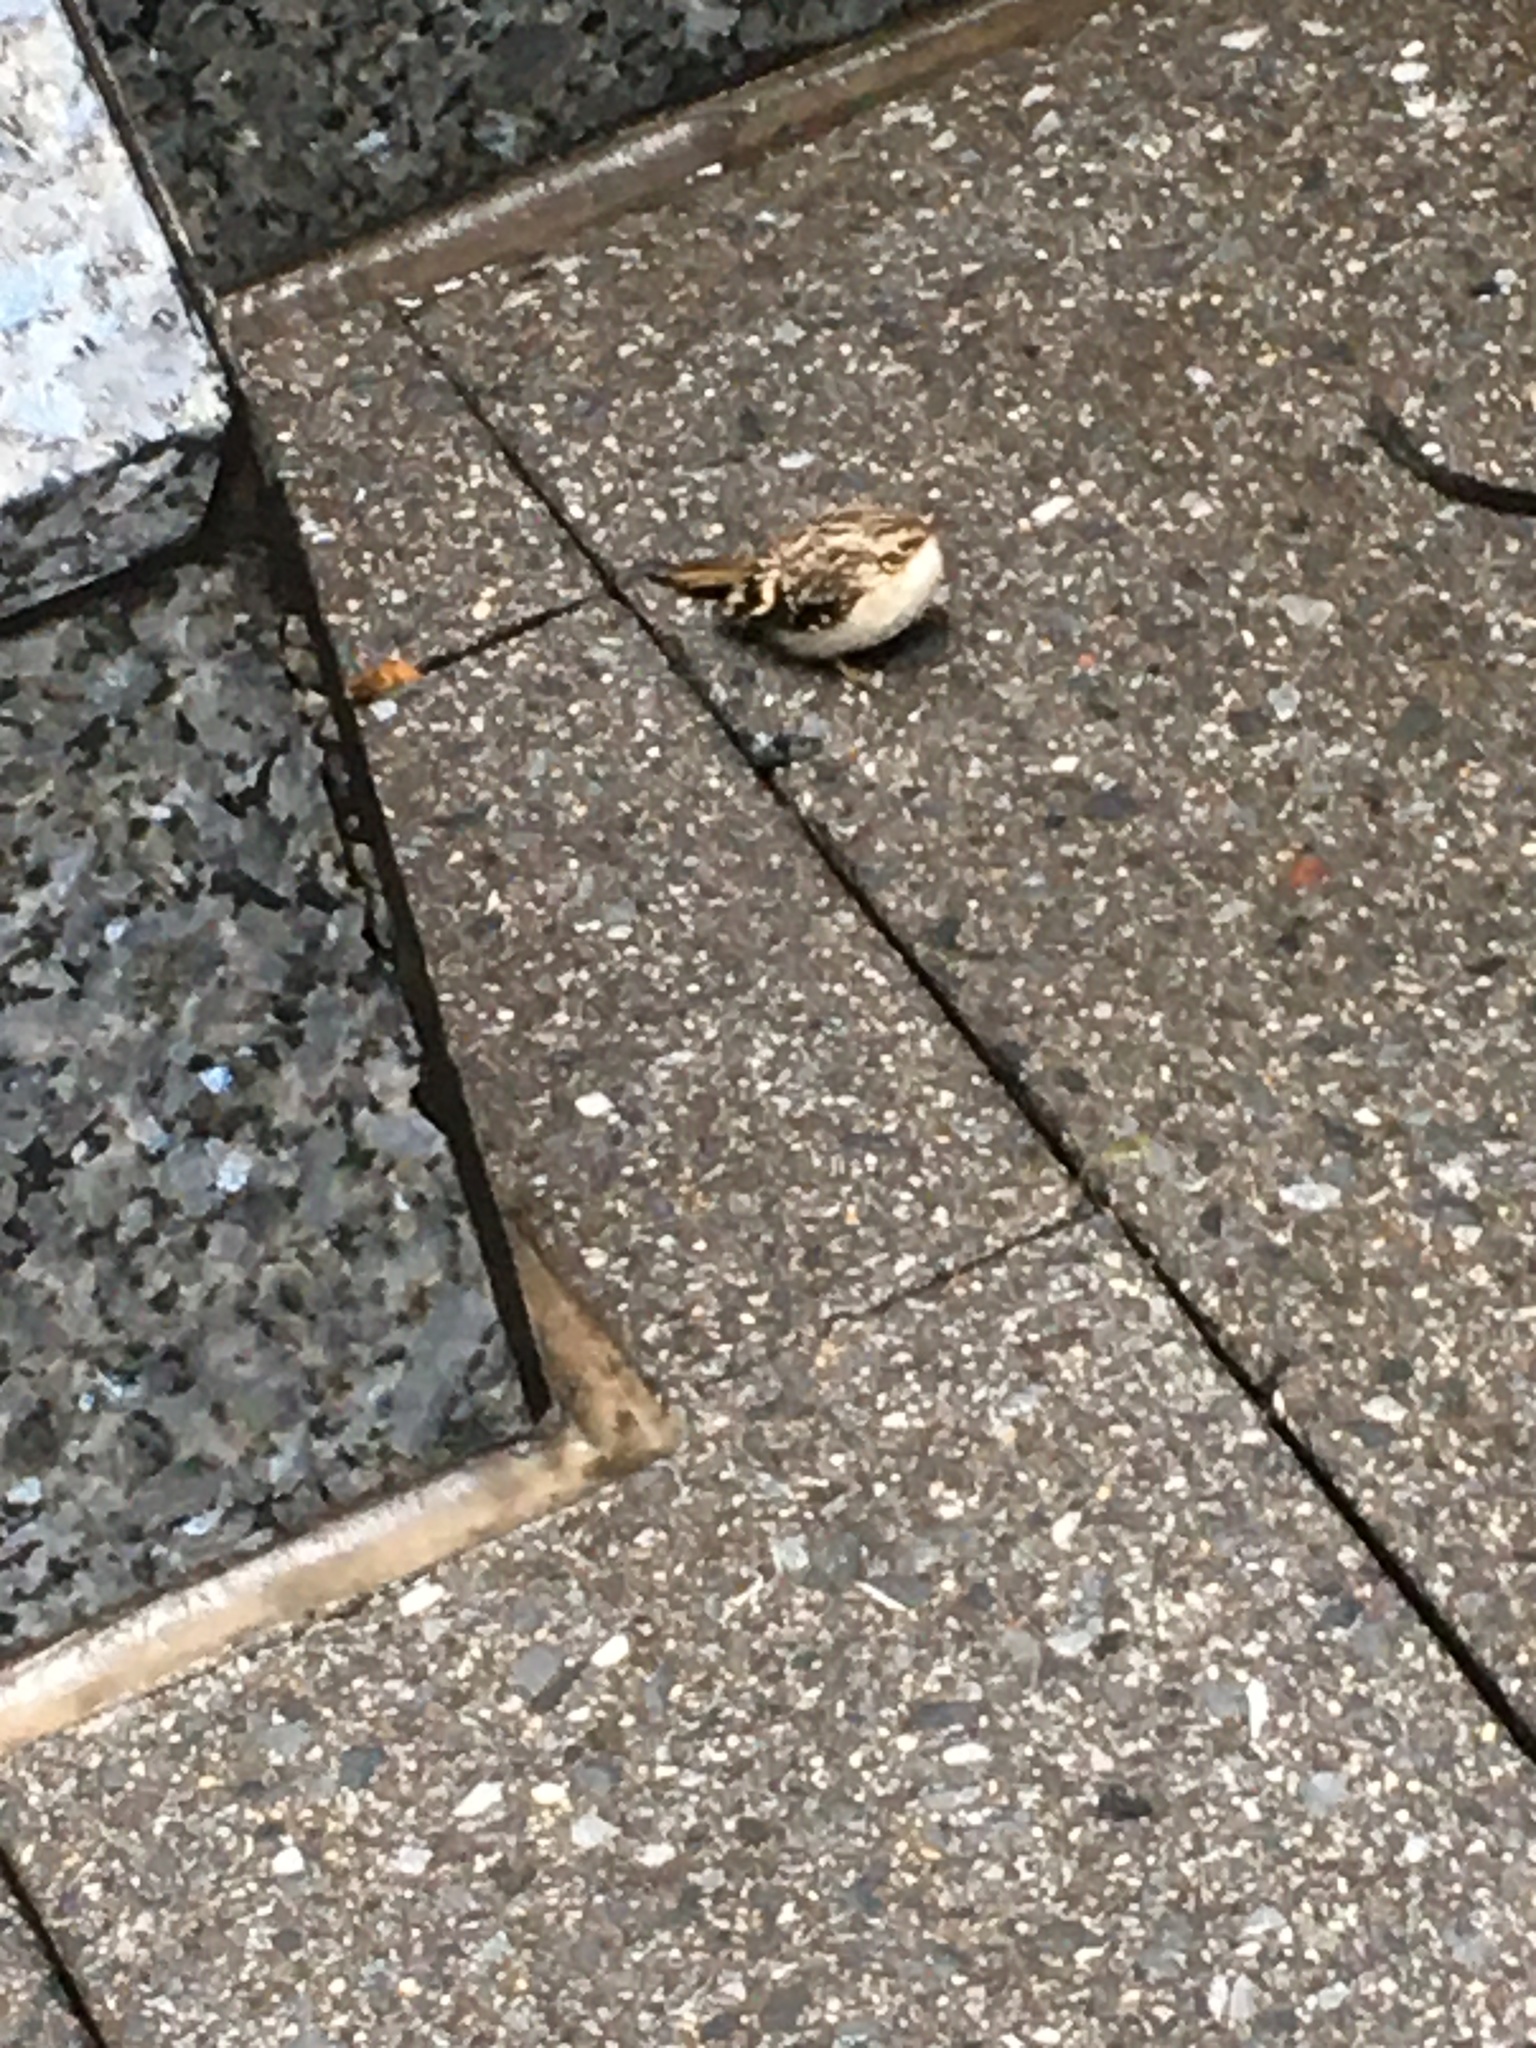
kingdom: Animalia
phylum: Chordata
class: Aves
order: Passeriformes
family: Passeridae
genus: Passer
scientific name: Passer domesticus
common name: House sparrow
